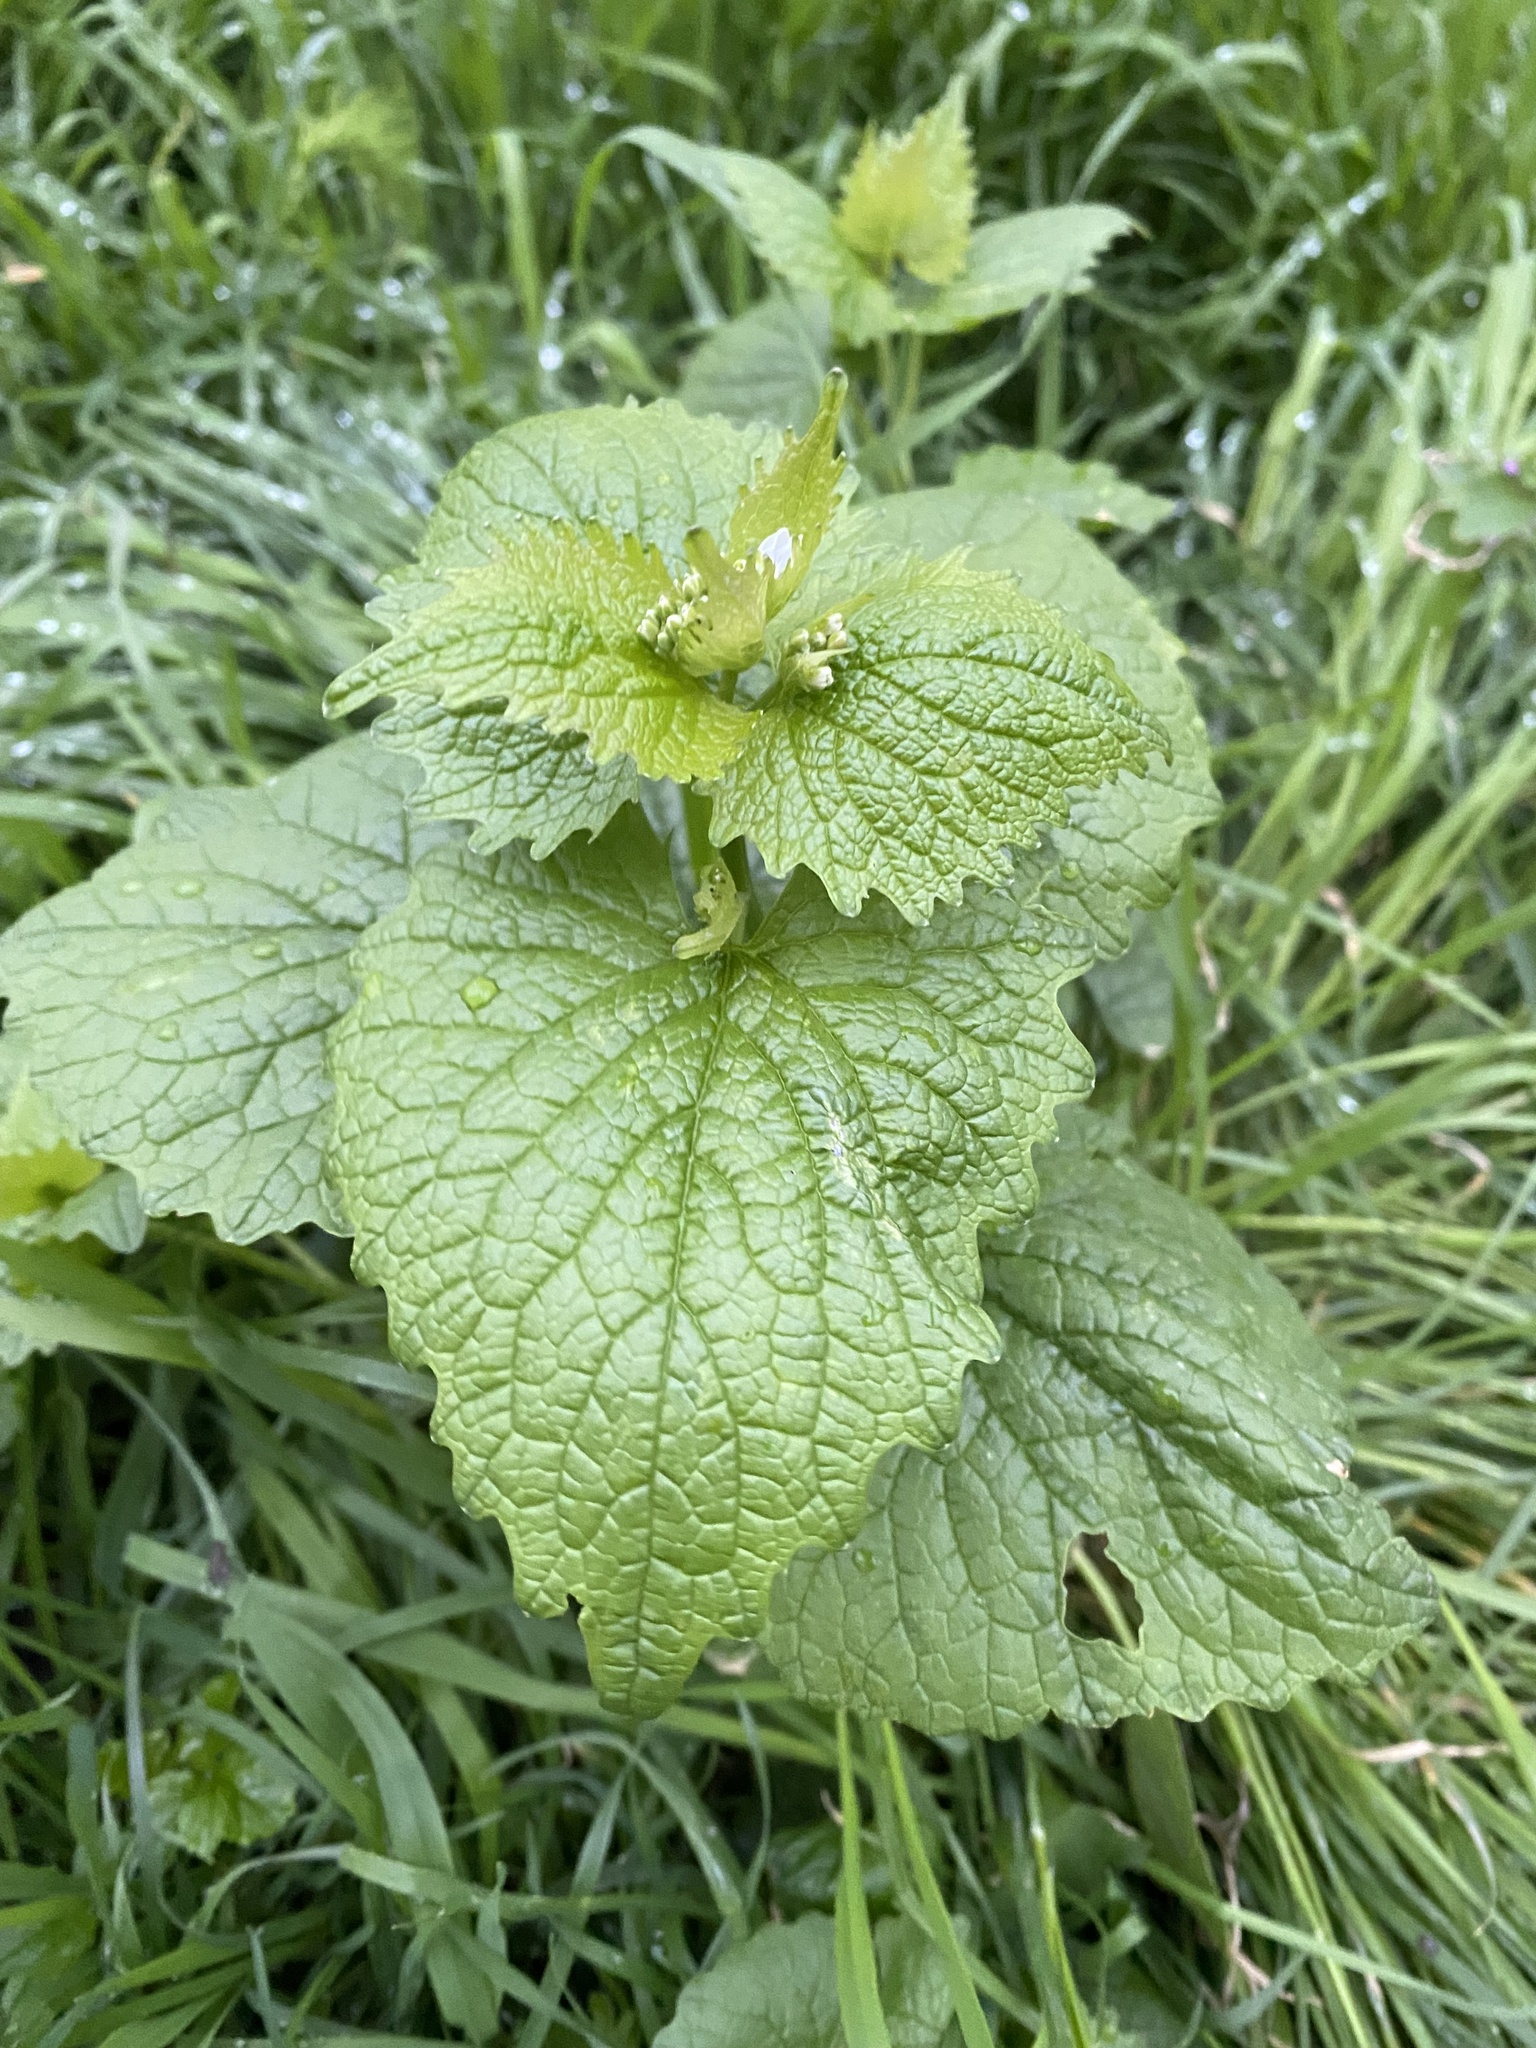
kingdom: Plantae
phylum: Tracheophyta
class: Magnoliopsida
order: Brassicales
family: Brassicaceae
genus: Alliaria
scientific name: Alliaria petiolata
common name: Garlic mustard
